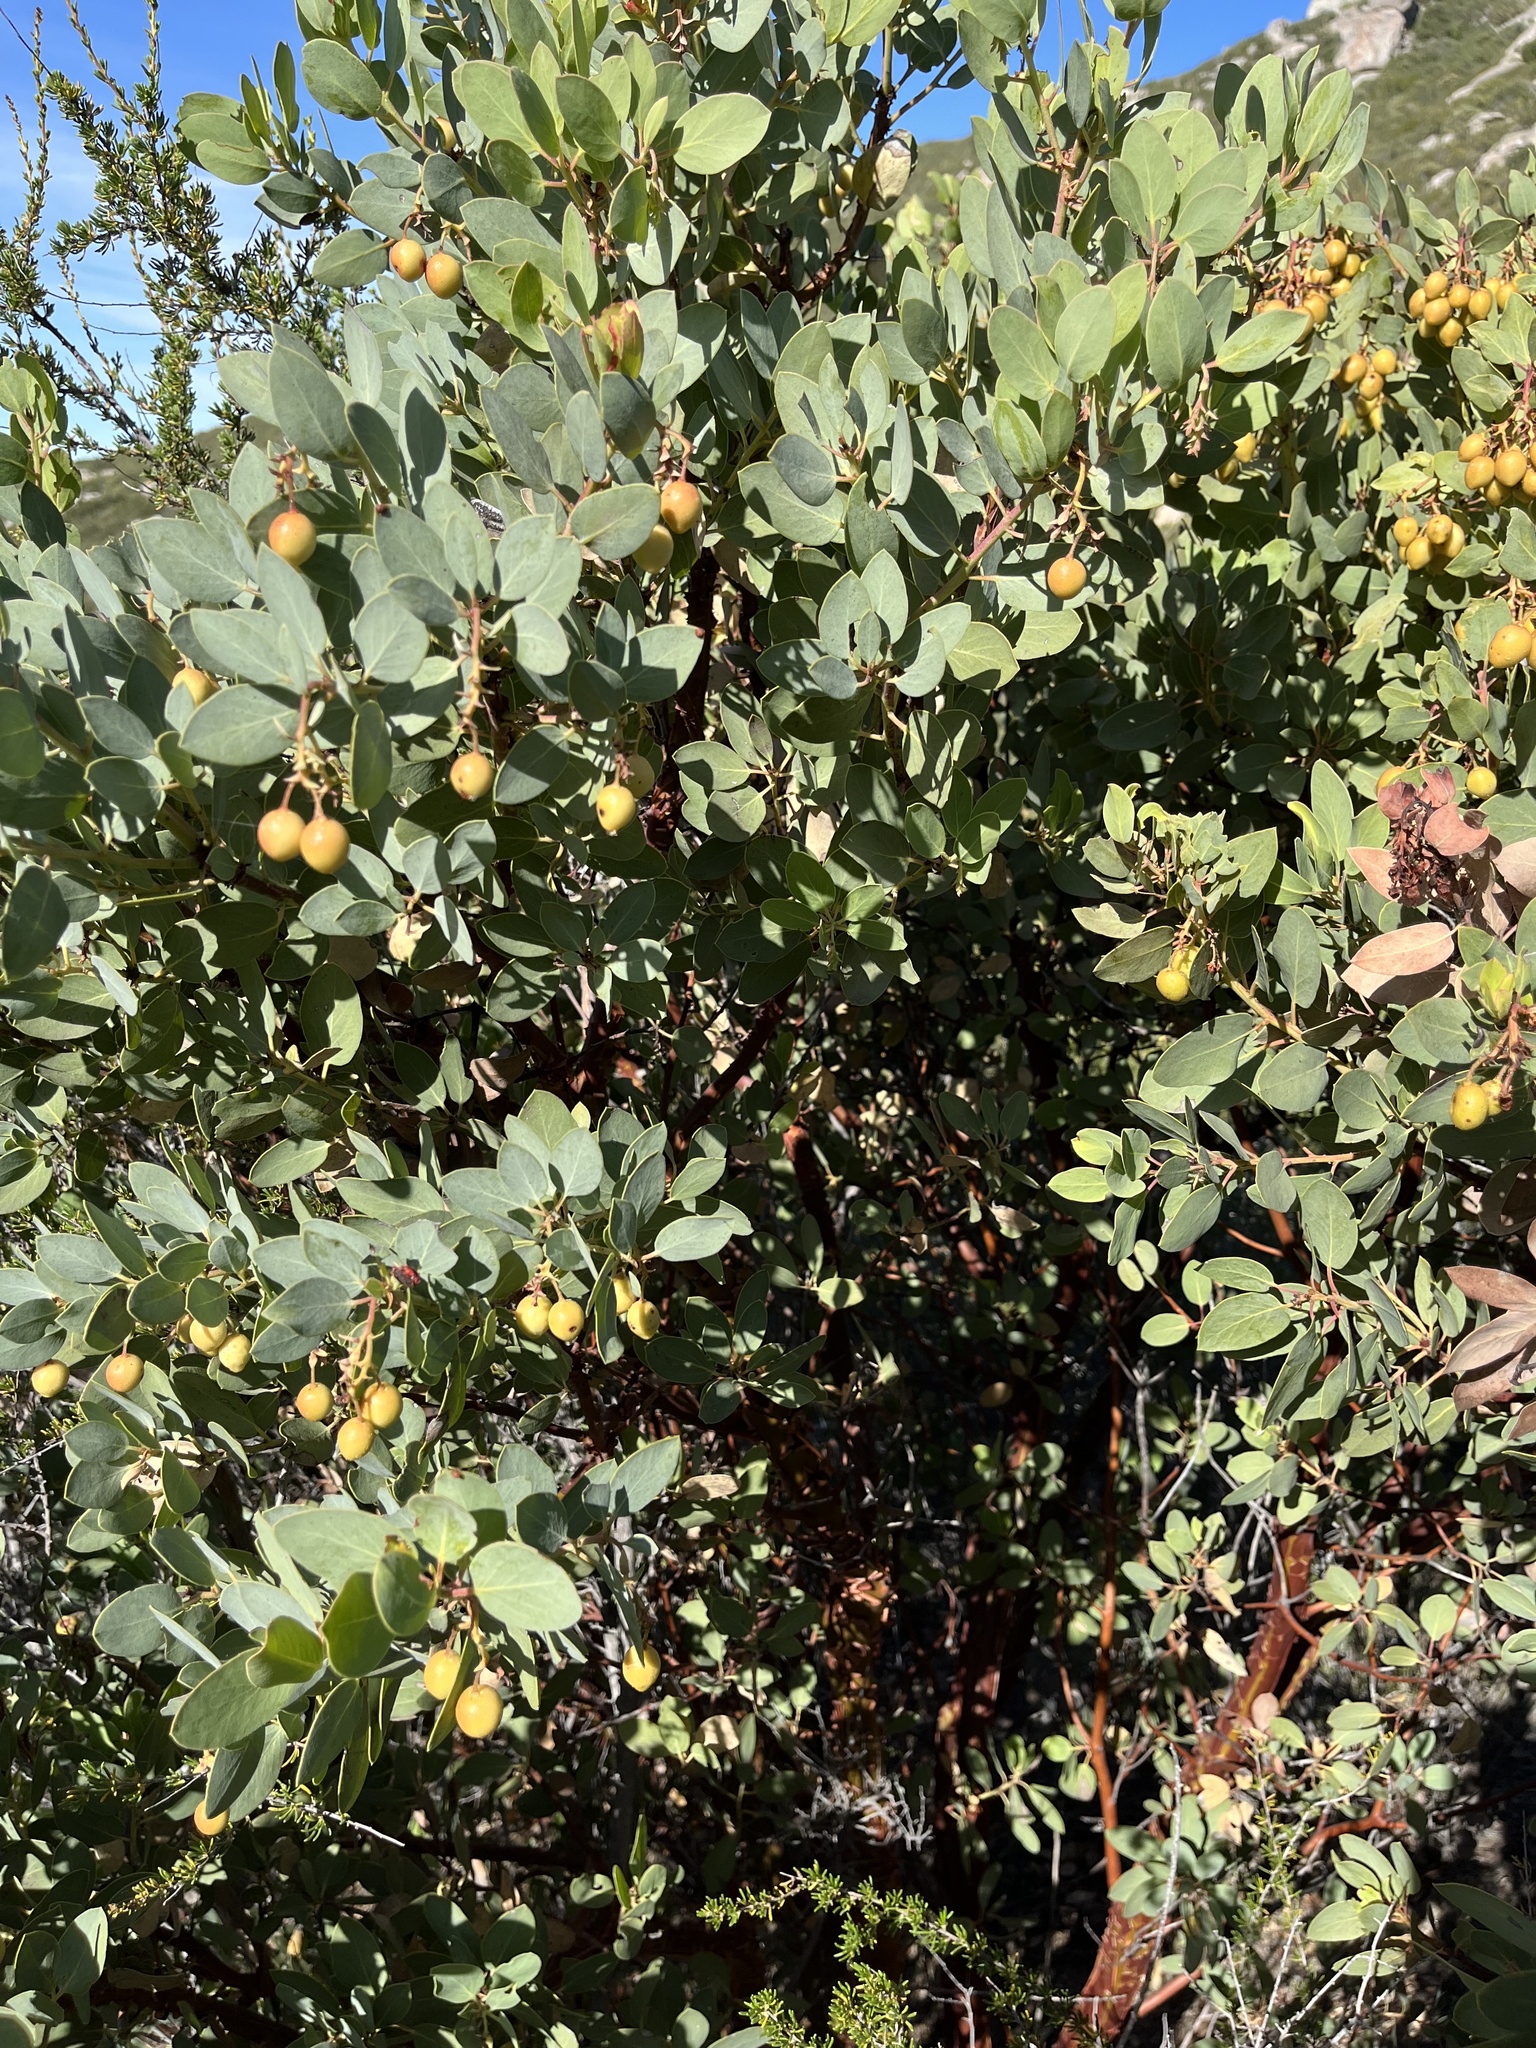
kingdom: Plantae
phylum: Tracheophyta
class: Magnoliopsida
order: Ericales
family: Ericaceae
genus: Arctostaphylos
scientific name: Arctostaphylos glauca
